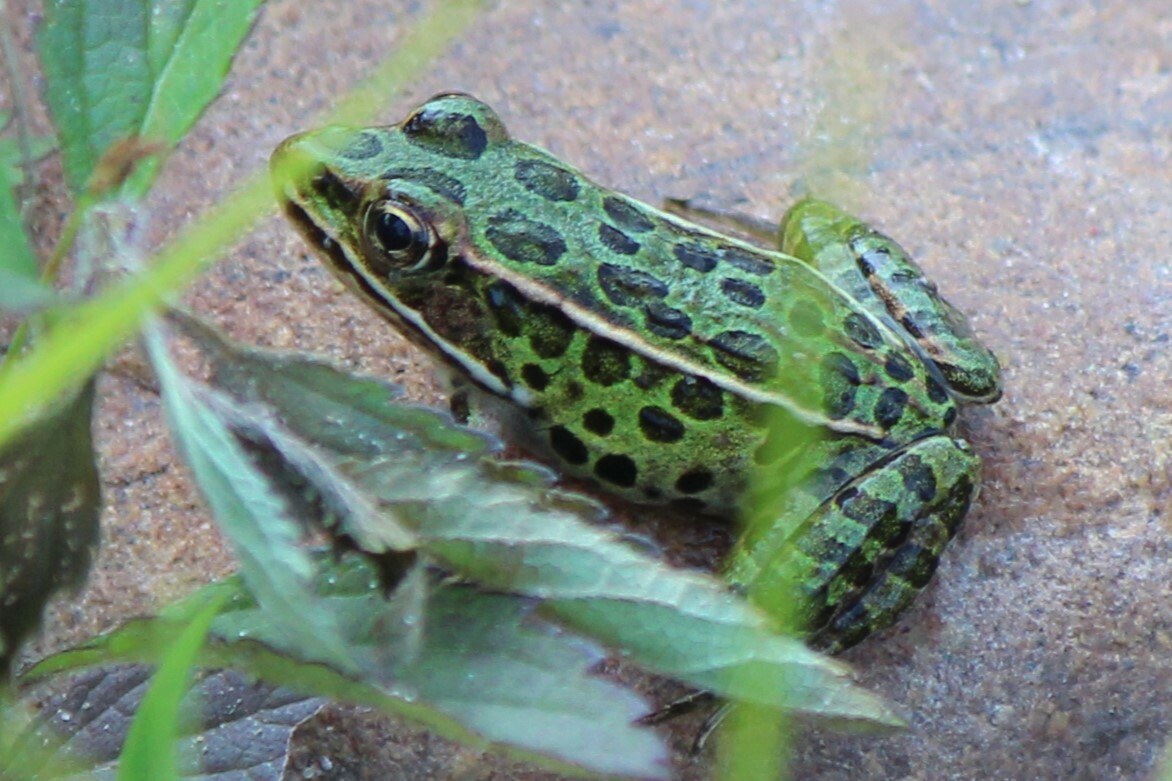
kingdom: Animalia
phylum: Chordata
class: Amphibia
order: Anura
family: Ranidae
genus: Lithobates
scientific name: Lithobates pipiens
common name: Northern leopard frog
